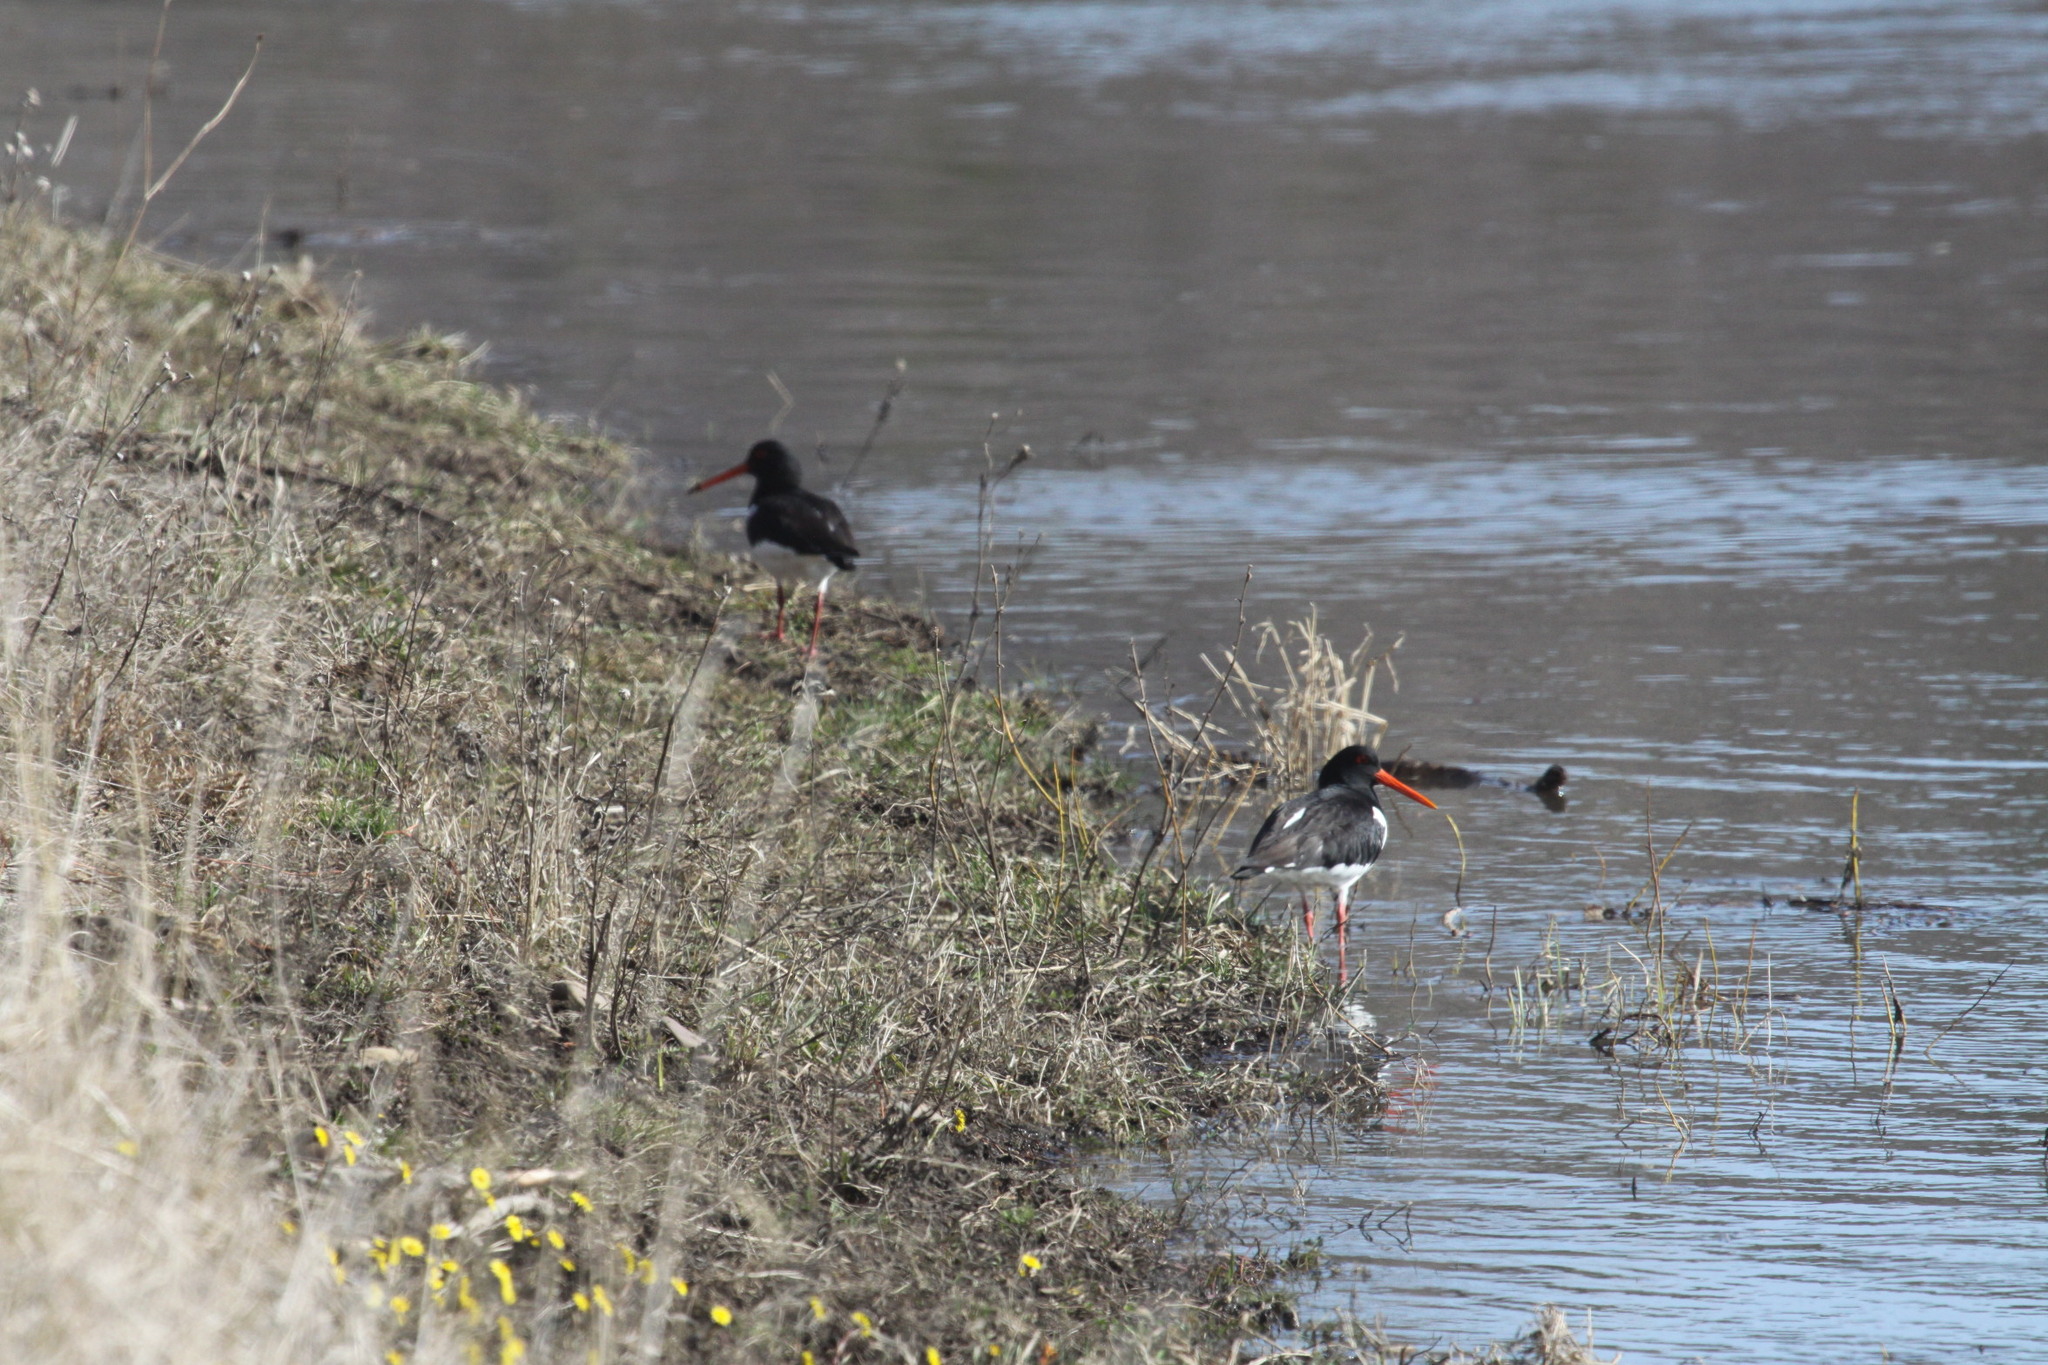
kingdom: Animalia
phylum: Chordata
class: Aves
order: Charadriiformes
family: Haematopodidae
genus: Haematopus
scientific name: Haematopus ostralegus
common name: Eurasian oystercatcher
